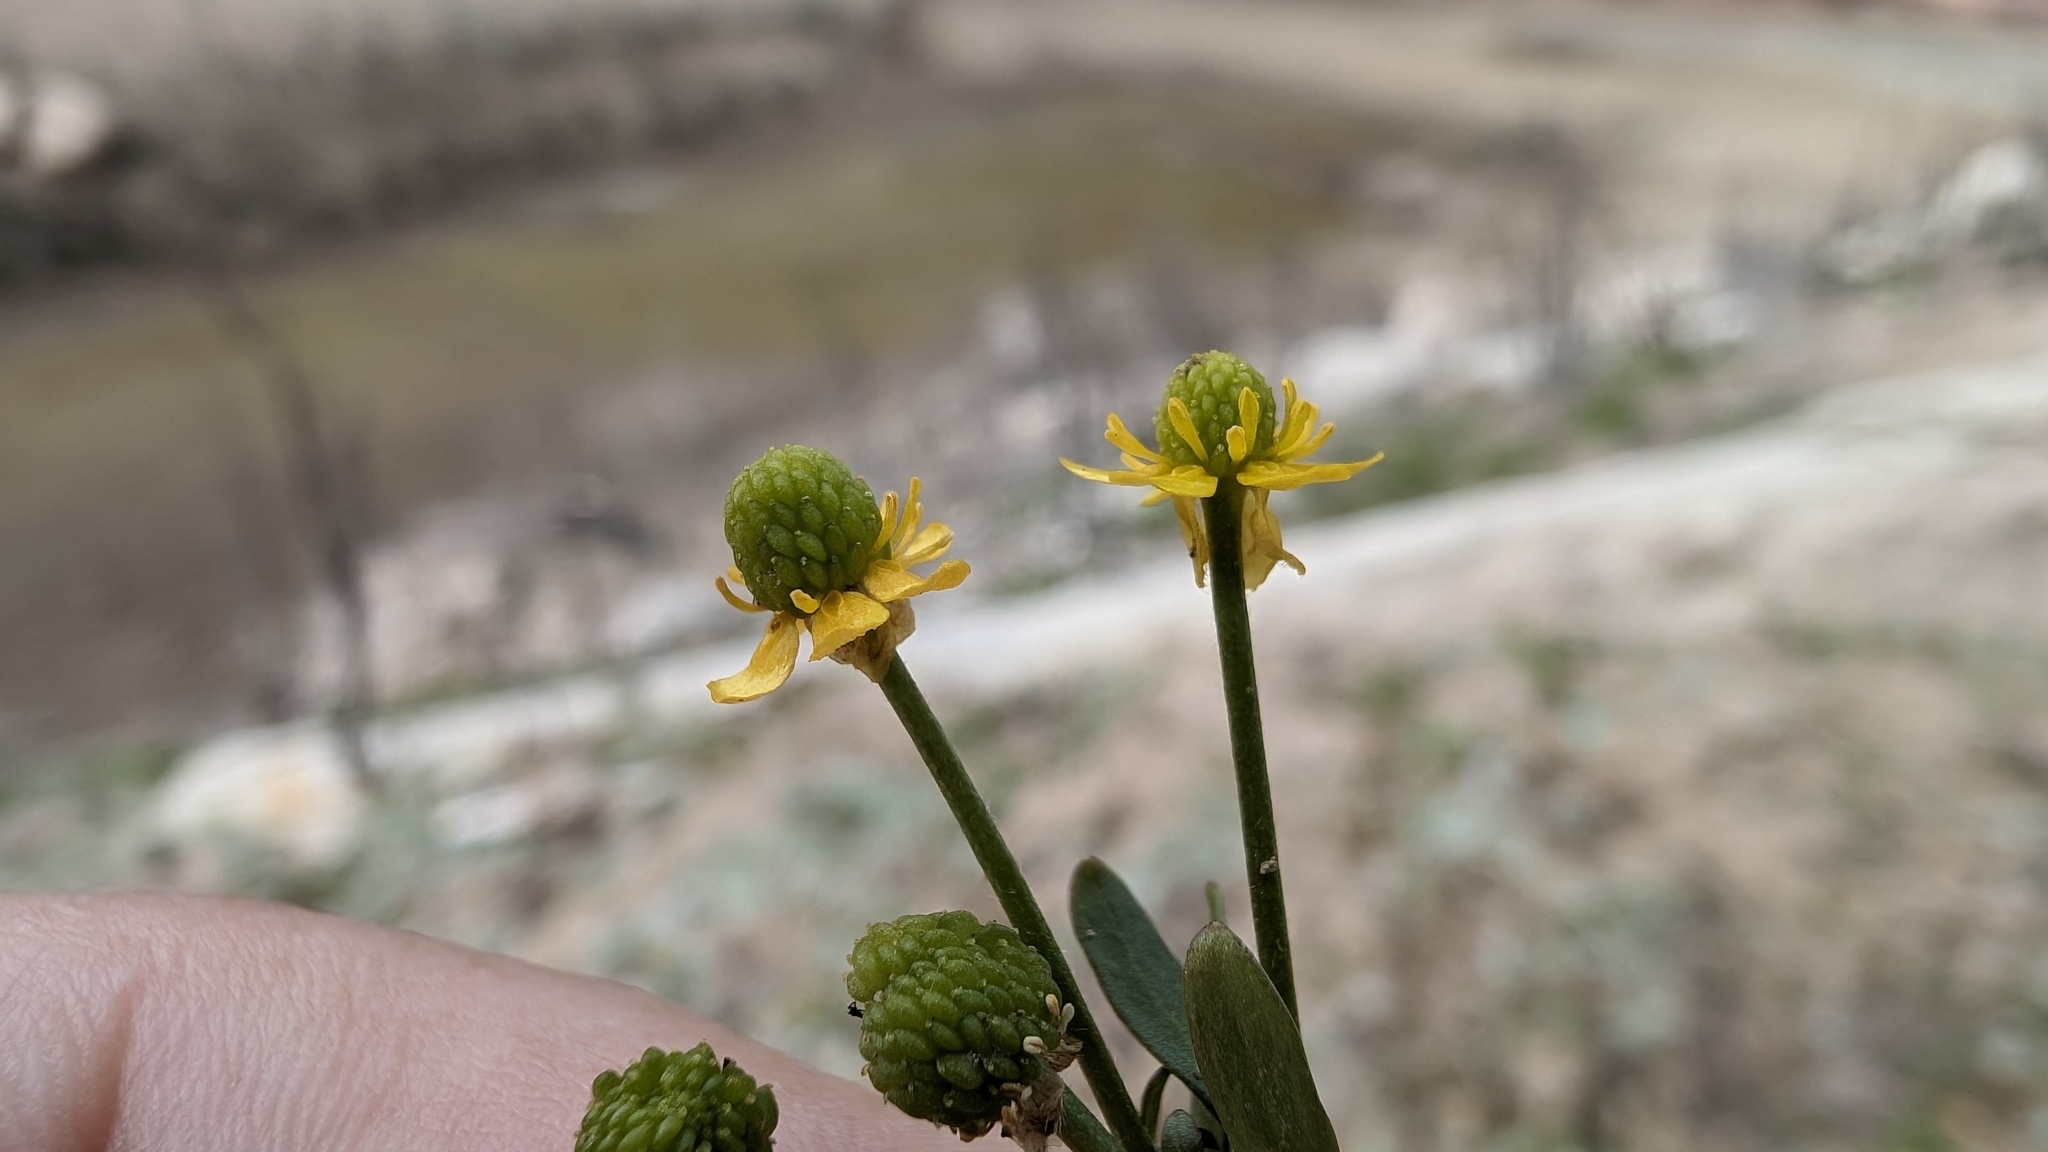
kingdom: Plantae
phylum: Tracheophyta
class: Magnoliopsida
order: Ranunculales
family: Ranunculaceae
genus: Ranunculus
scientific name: Ranunculus sceleratus
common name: Celery-leaved buttercup
